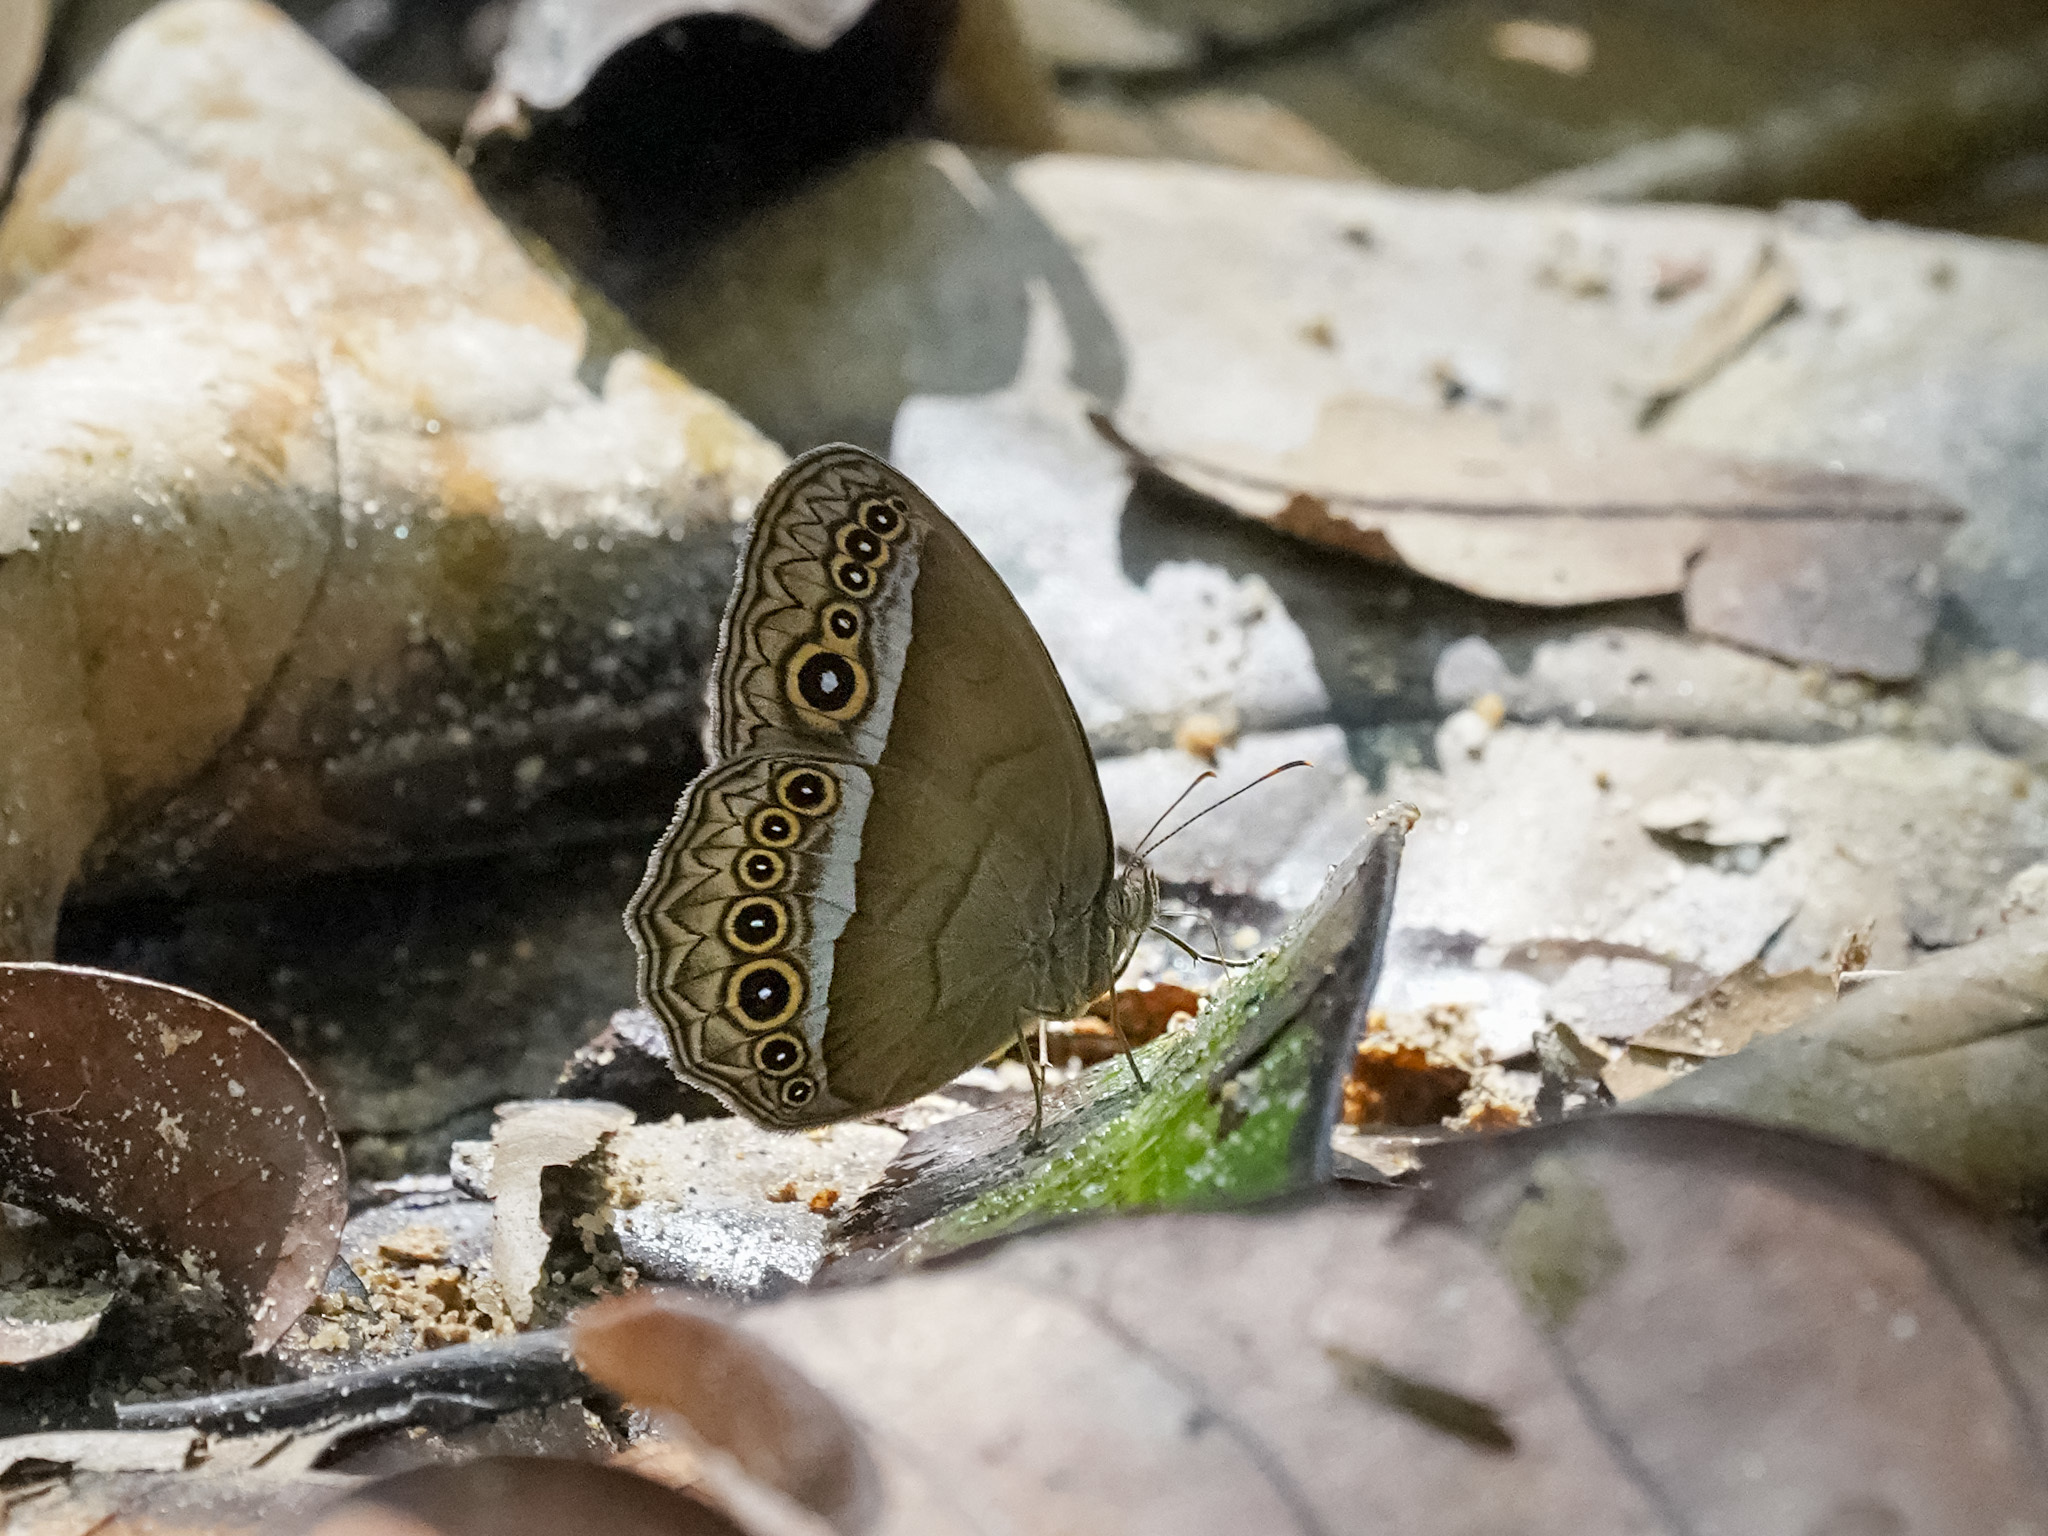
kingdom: Animalia
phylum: Arthropoda
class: Insecta
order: Lepidoptera
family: Nymphalidae
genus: Mycalesis
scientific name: Mycalesis orseis
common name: Purple bushbrown
